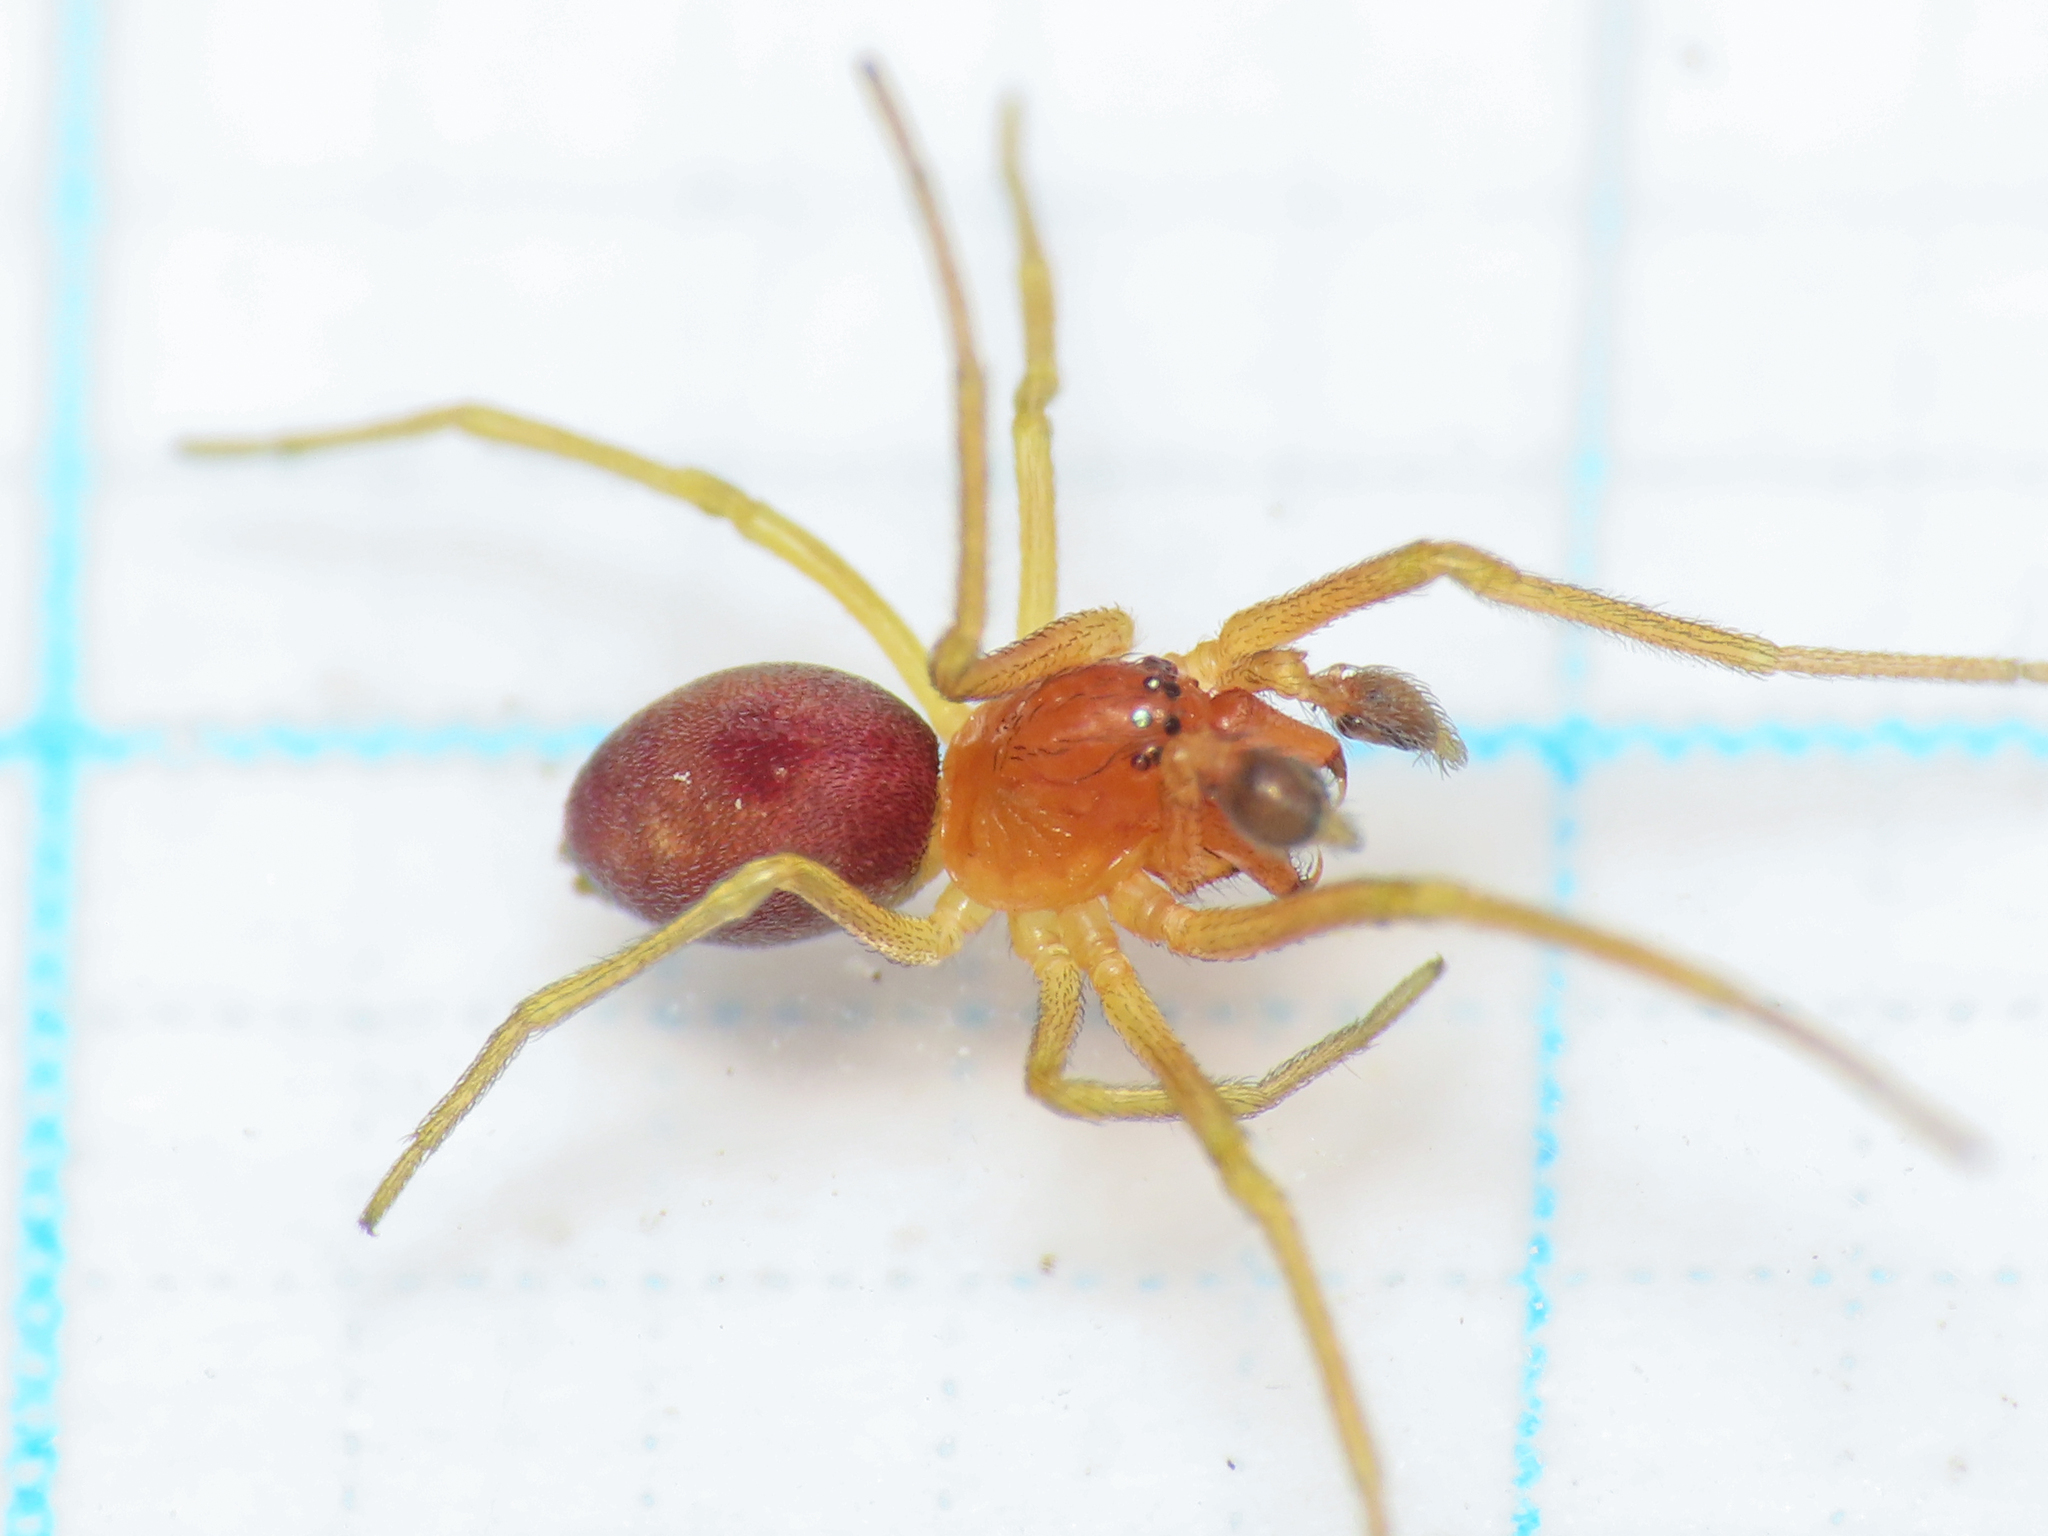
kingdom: Animalia
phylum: Arthropoda
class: Arachnida
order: Araneae
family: Dictynidae
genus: Nigma
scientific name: Nigma puella
